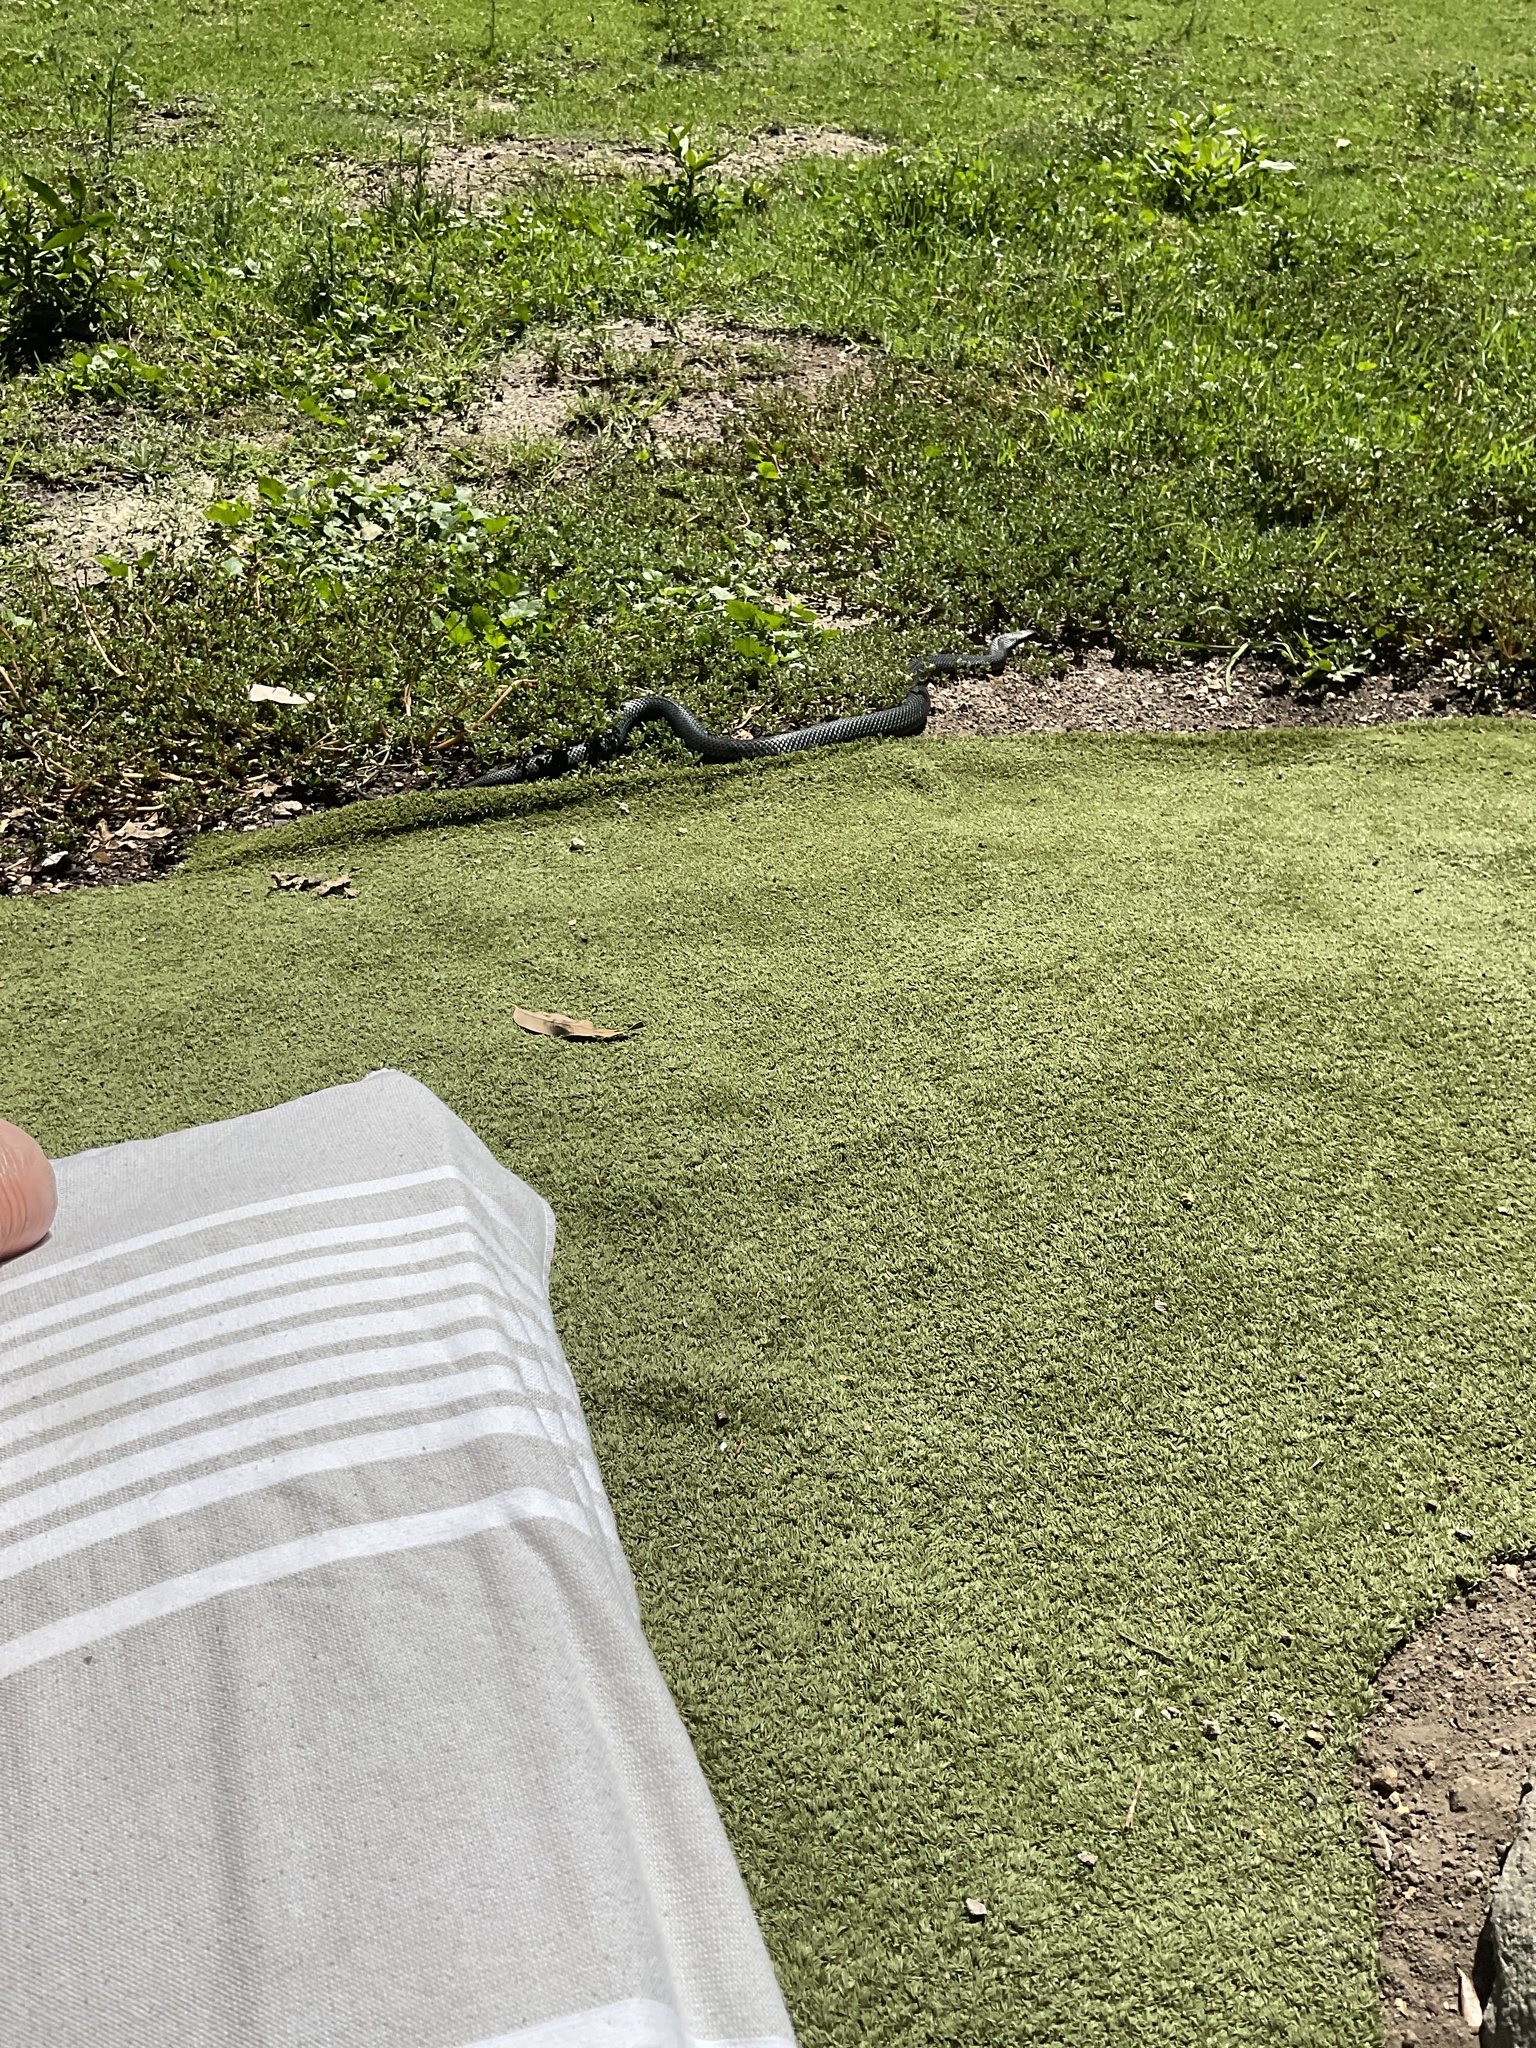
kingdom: Animalia
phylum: Chordata
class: Squamata
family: Elapidae
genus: Pseudechis
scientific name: Pseudechis porphyriacus
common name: Australian black snake
